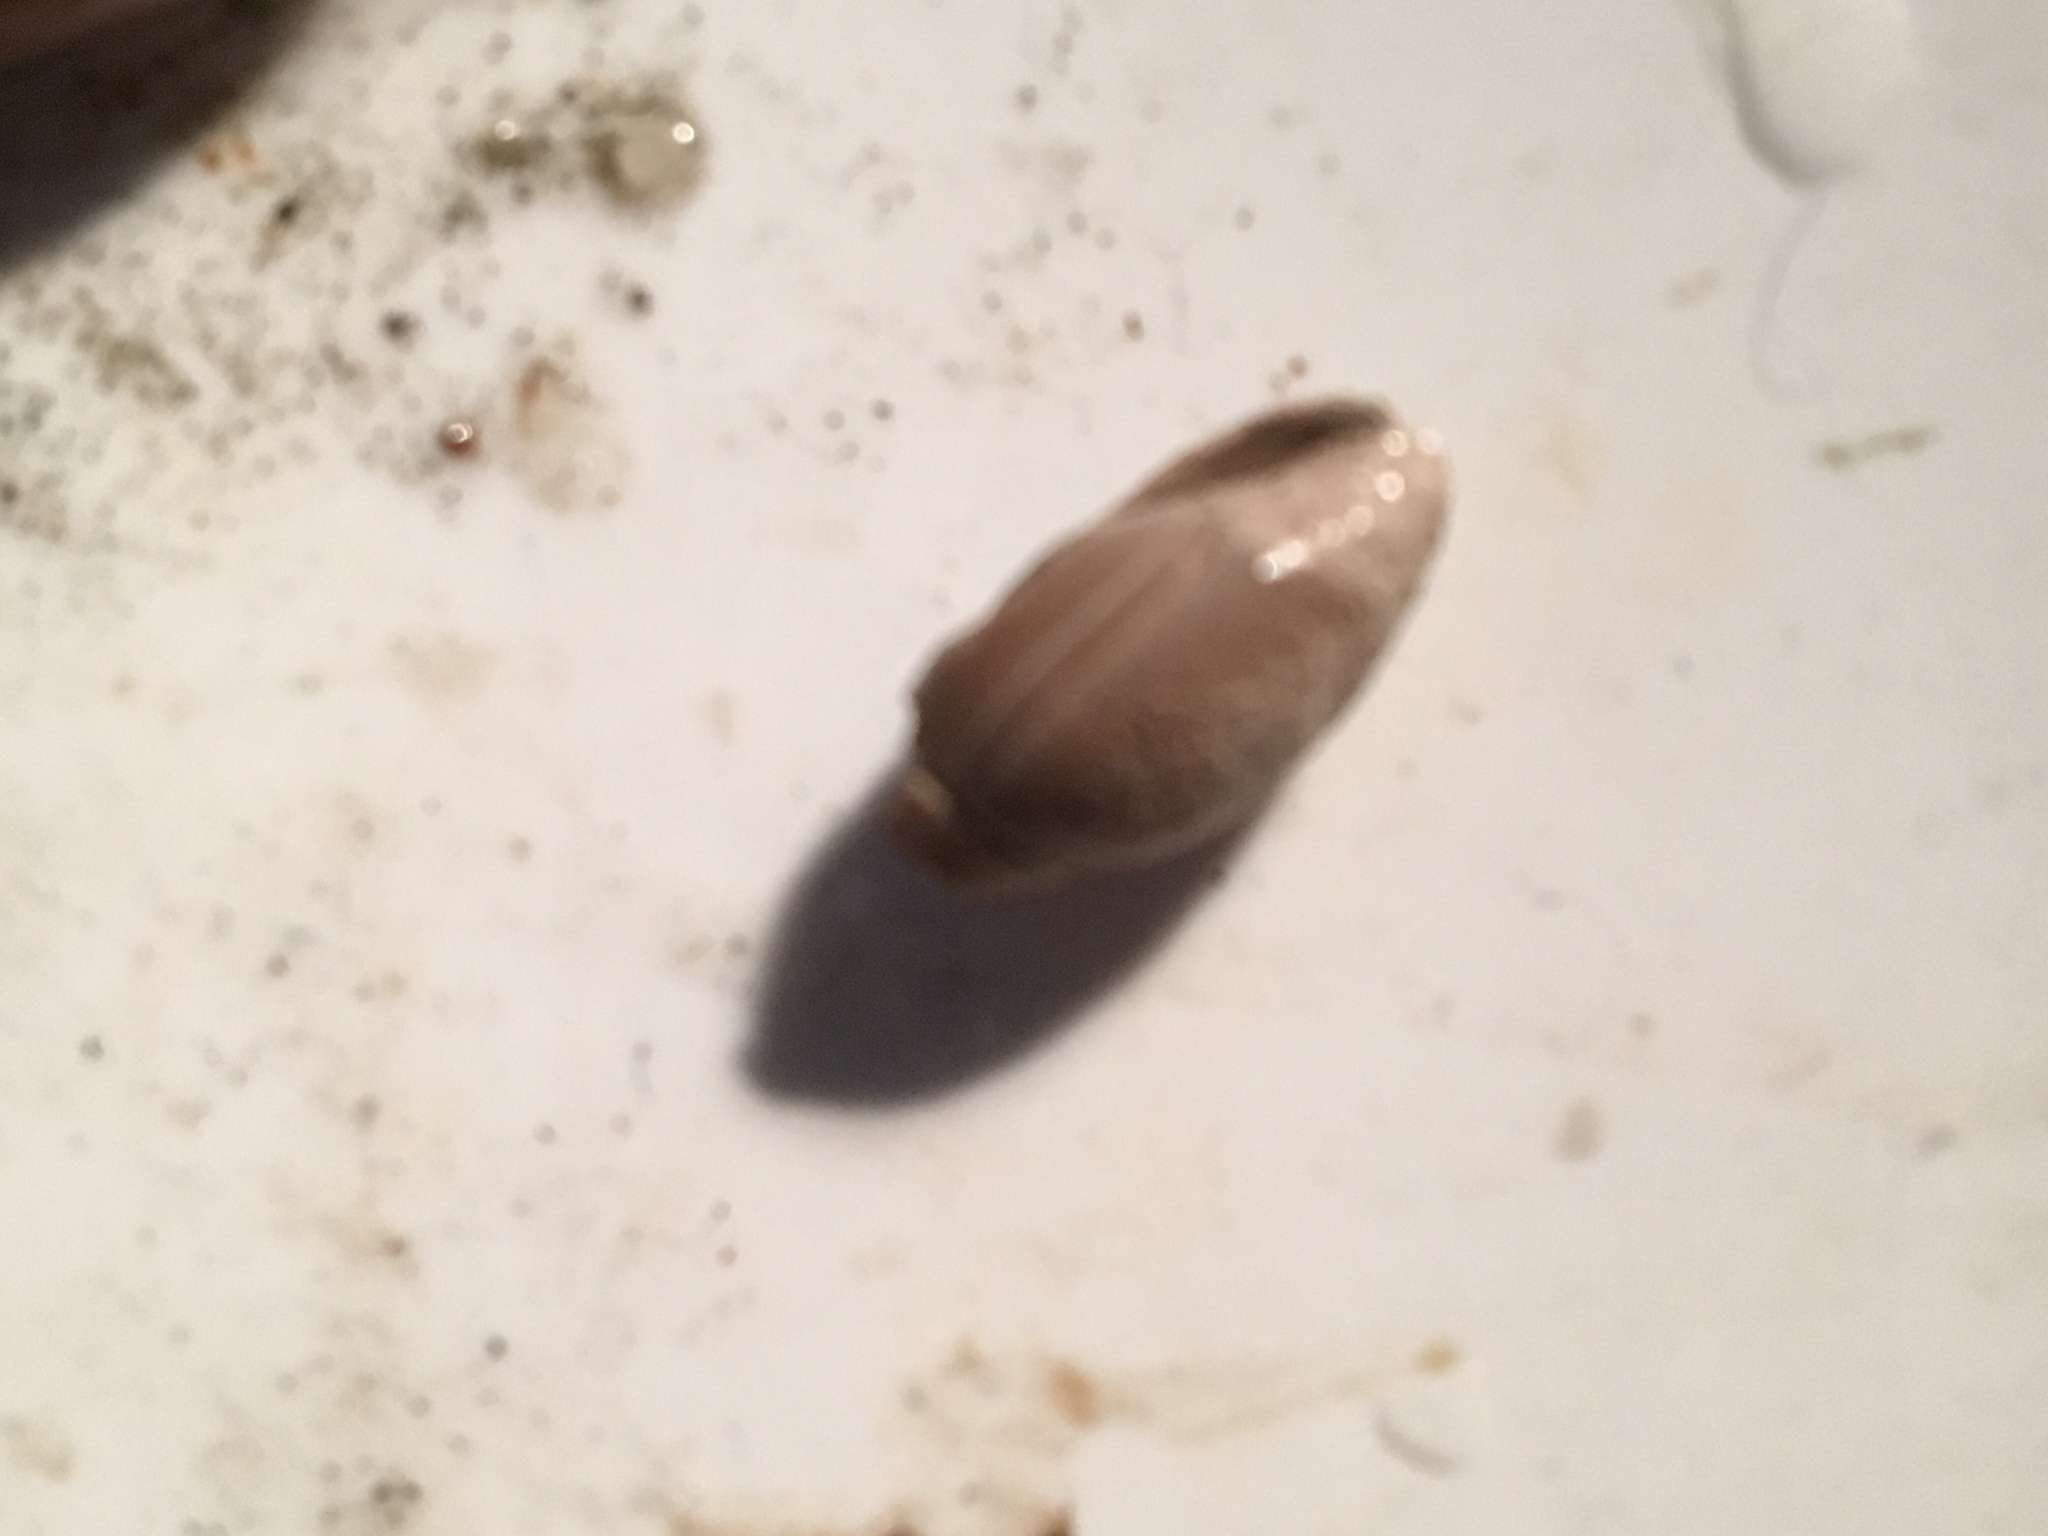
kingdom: Animalia
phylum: Mollusca
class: Gastropoda
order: Neogastropoda
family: Olividae
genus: Callianax
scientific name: Callianax biplicata
